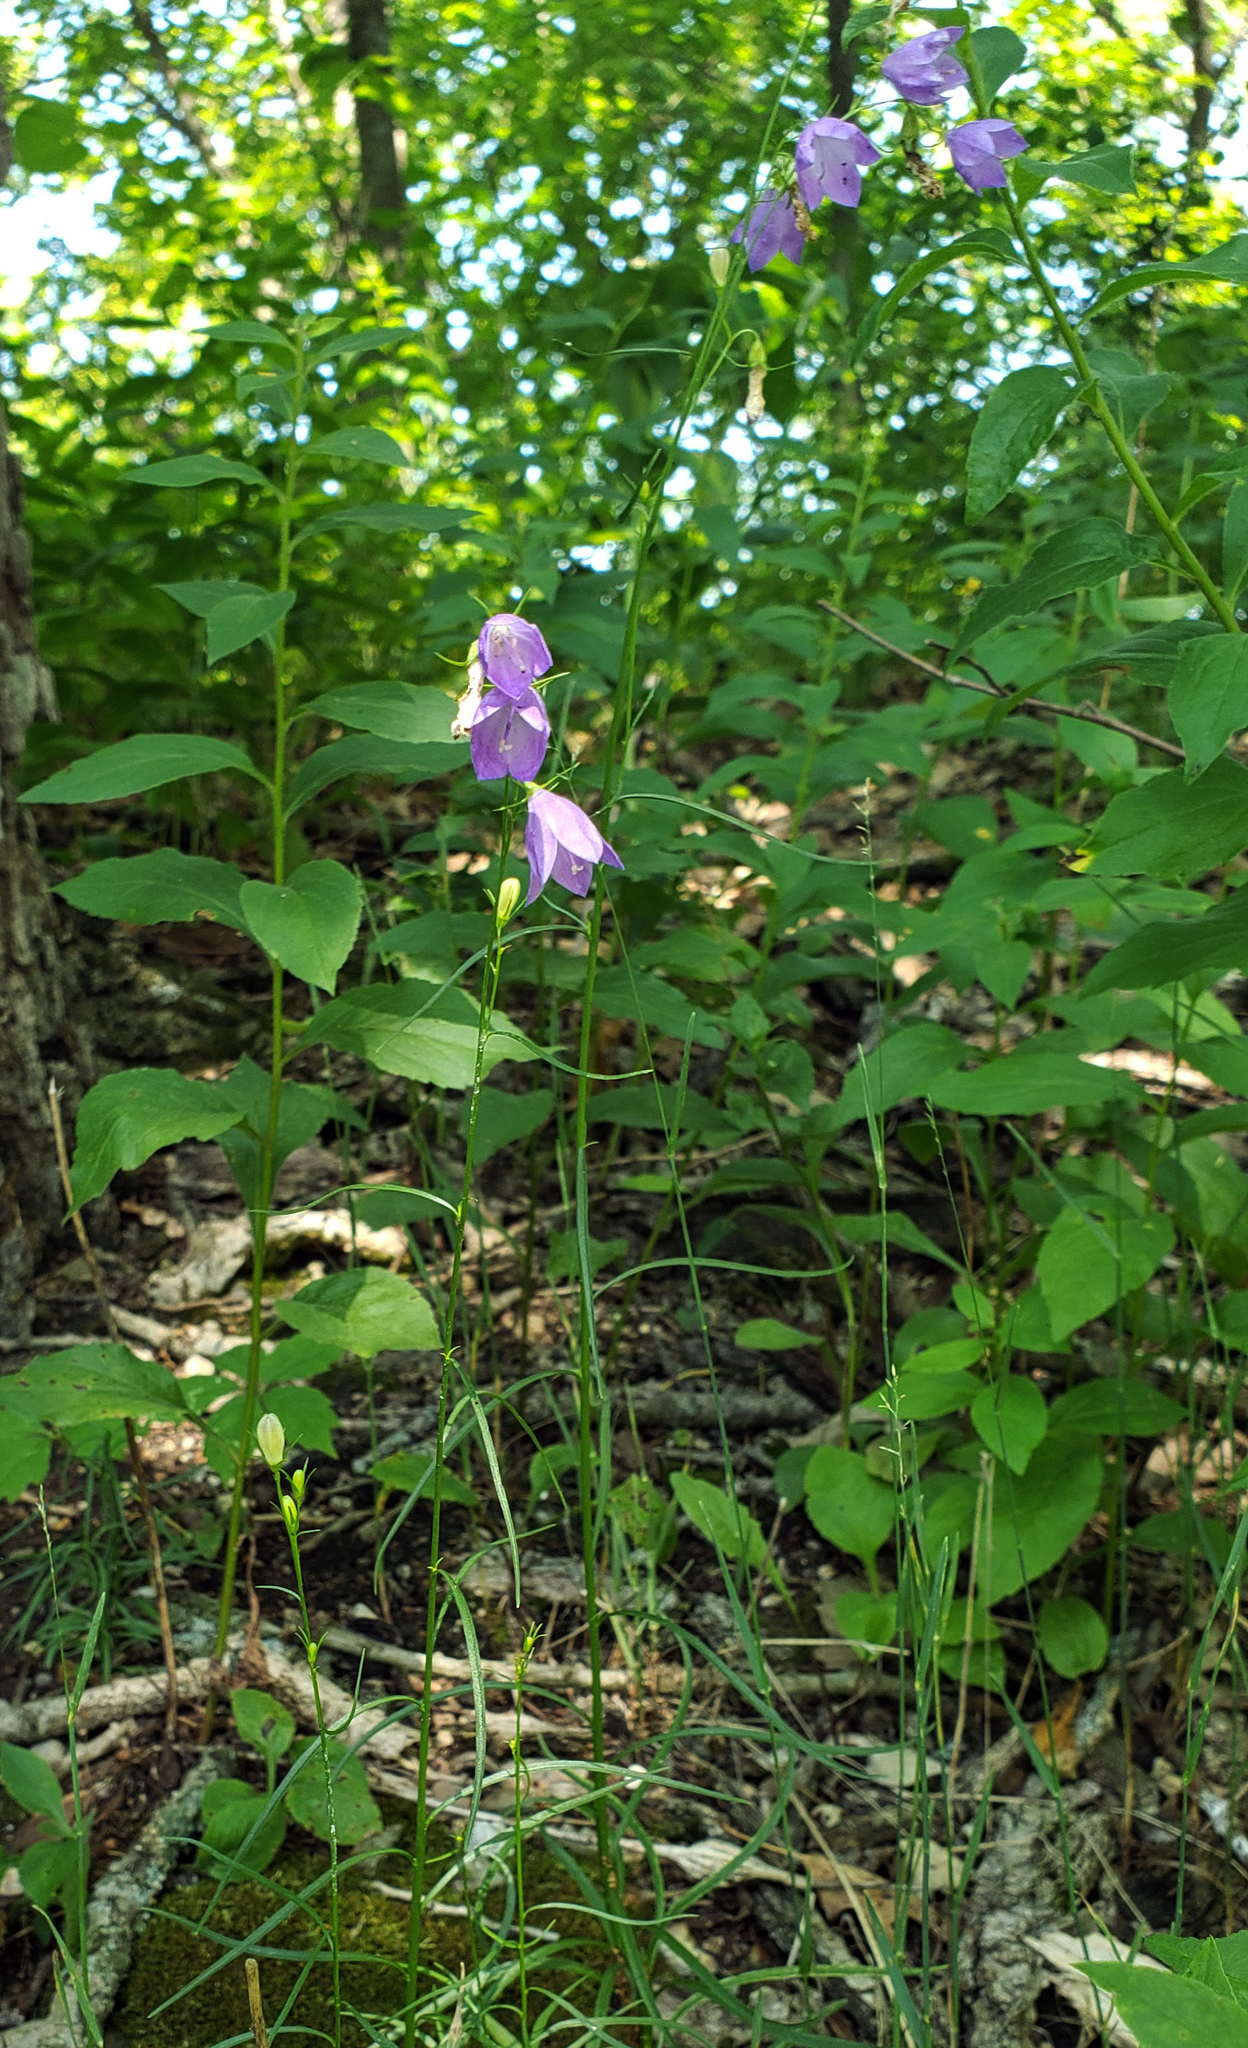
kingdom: Plantae
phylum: Tracheophyta
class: Magnoliopsida
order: Asterales
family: Campanulaceae
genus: Campanula
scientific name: Campanula intercedens
